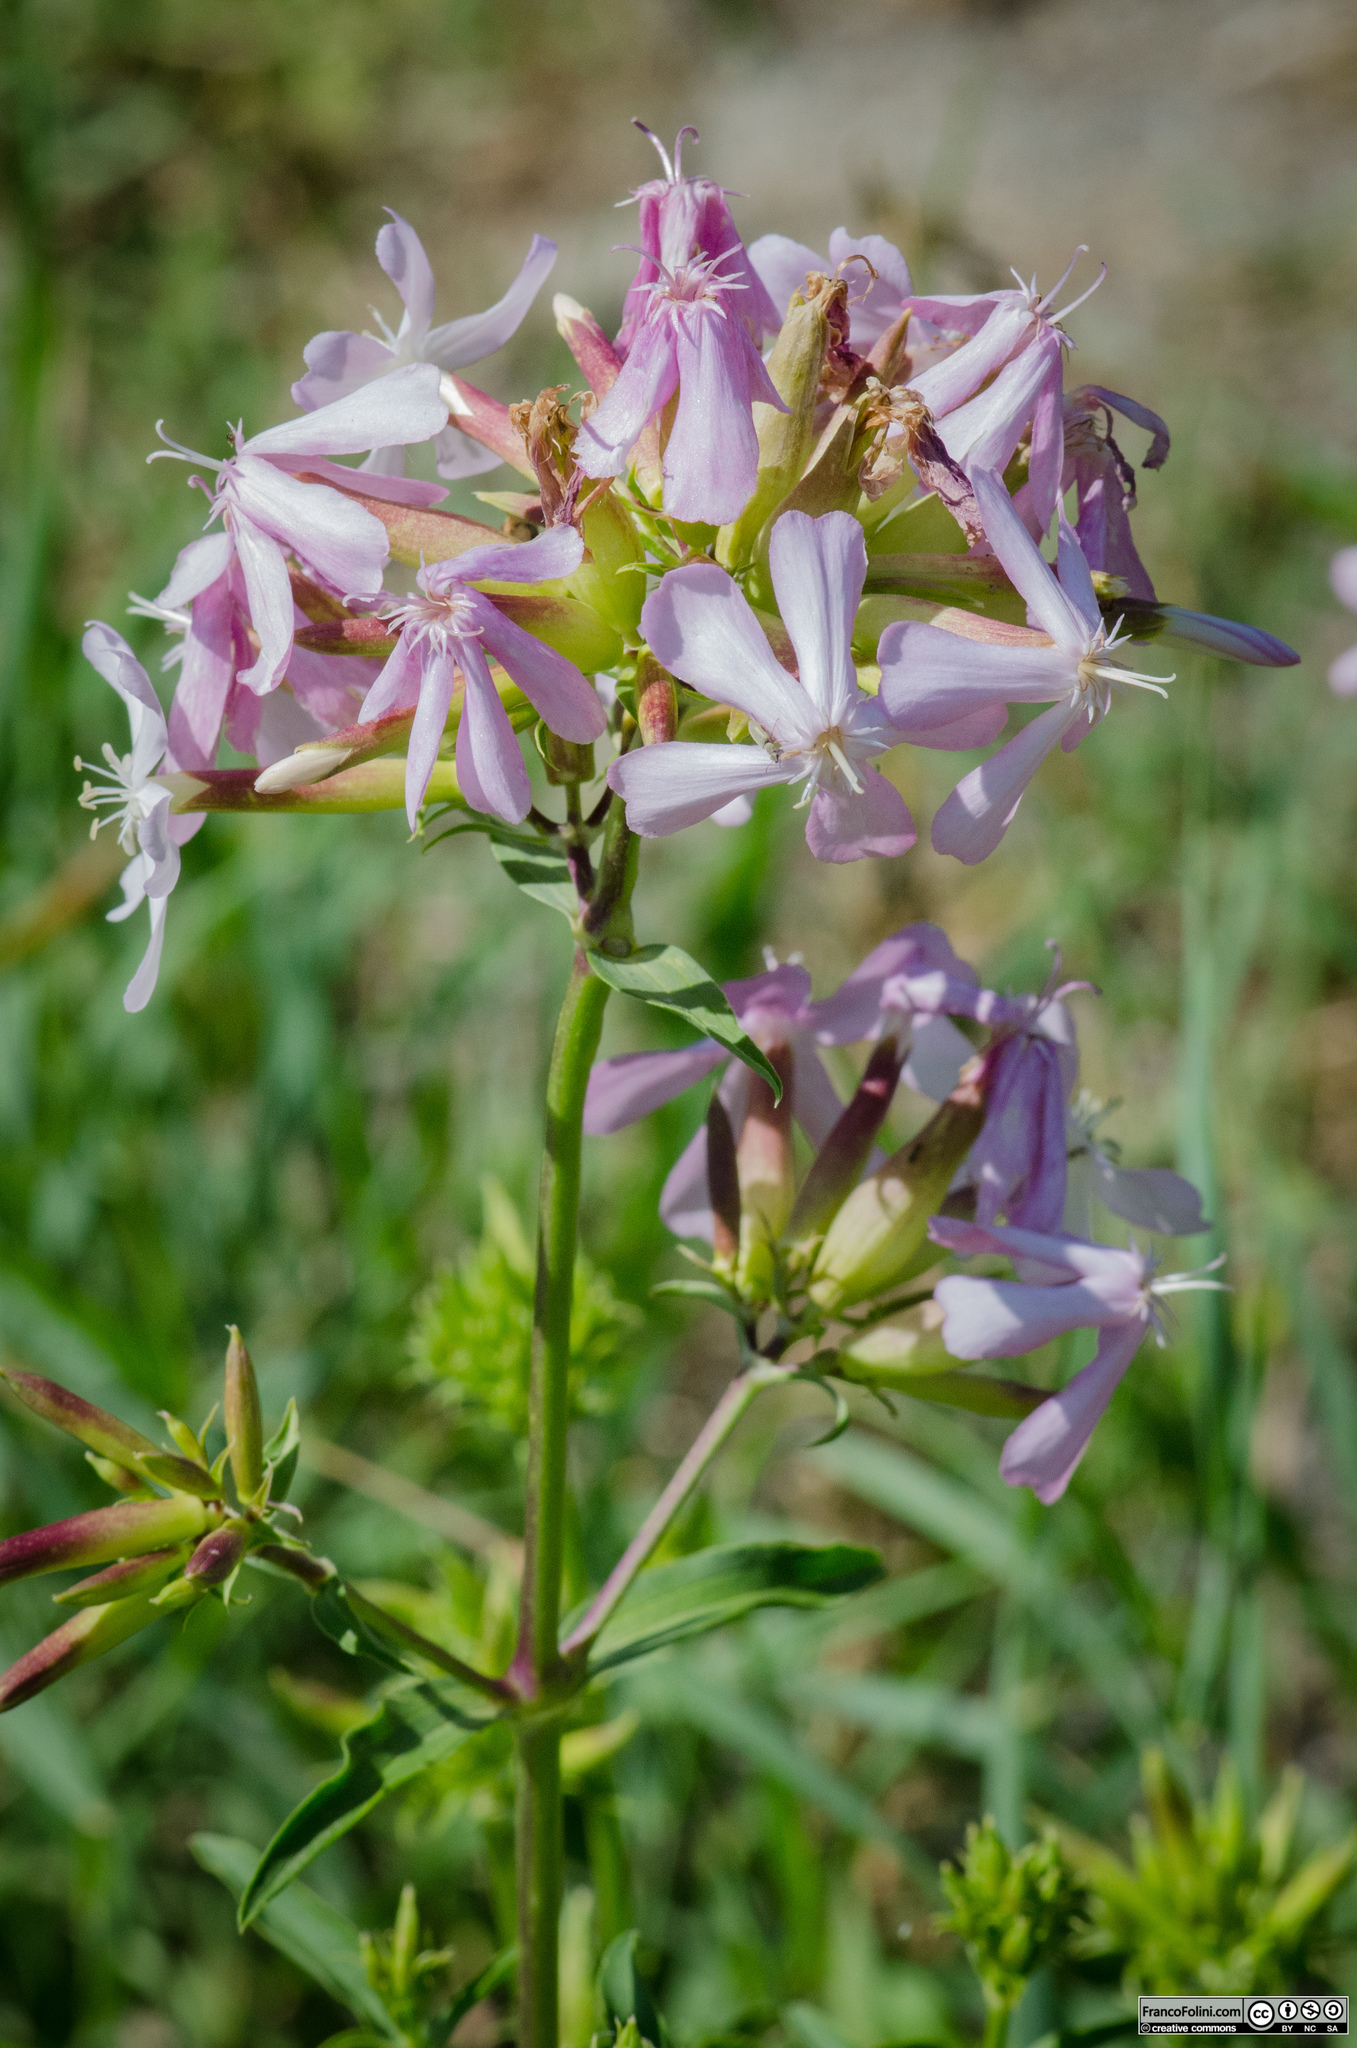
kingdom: Plantae
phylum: Tracheophyta
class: Magnoliopsida
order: Caryophyllales
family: Caryophyllaceae
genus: Saponaria
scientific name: Saponaria officinalis
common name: Soapwort
